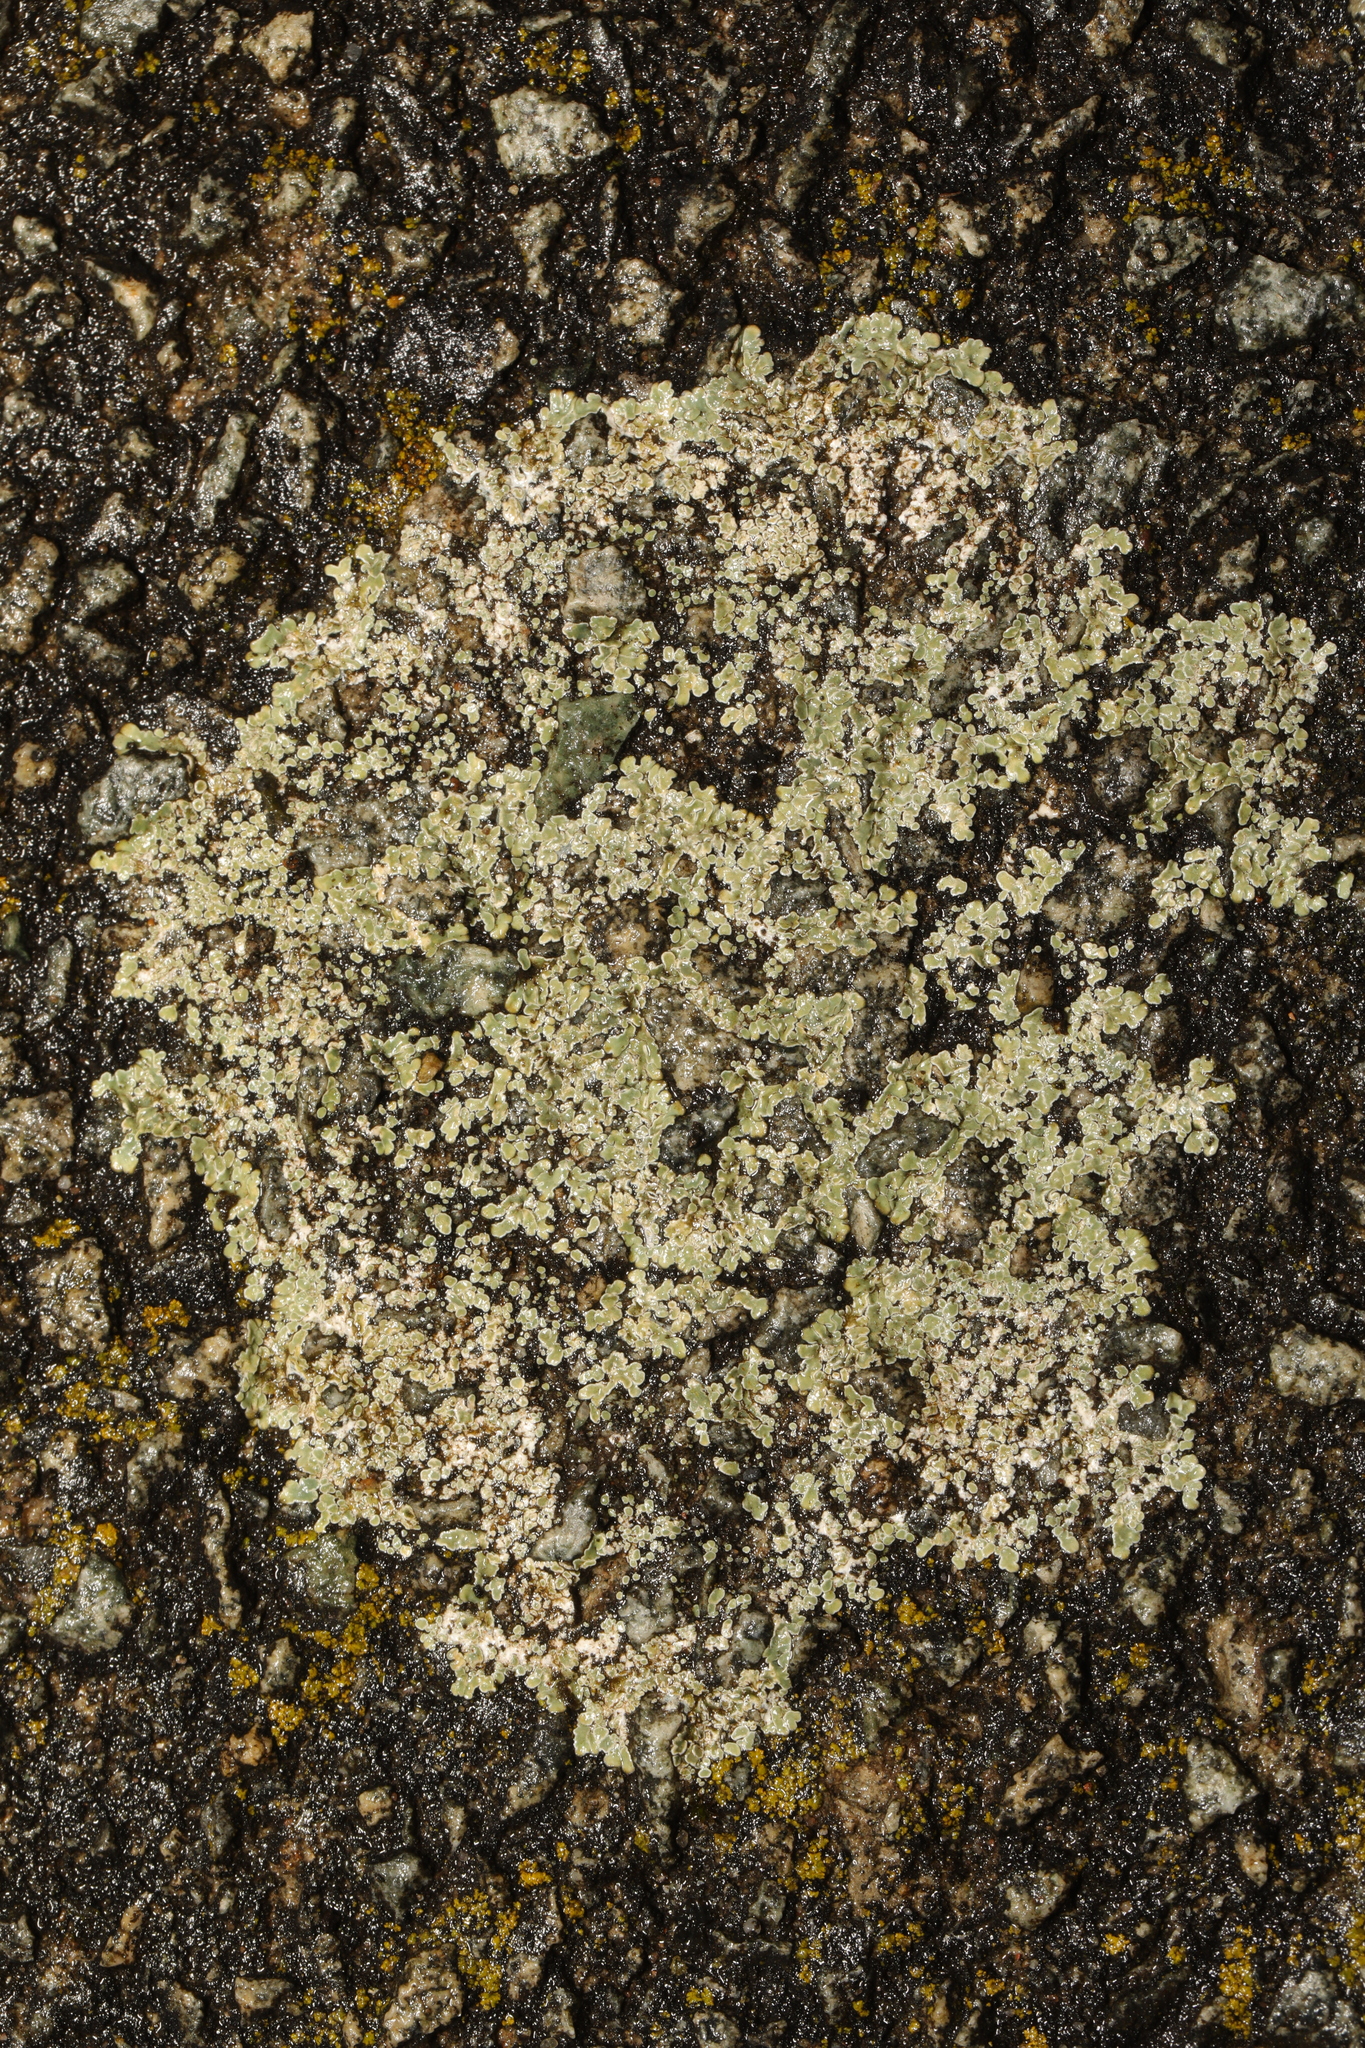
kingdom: Fungi
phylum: Ascomycota
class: Lecanoromycetes
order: Lecanorales
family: Lecanoraceae
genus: Protoparmeliopsis
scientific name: Protoparmeliopsis muralis
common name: Stonewall rim lichen
